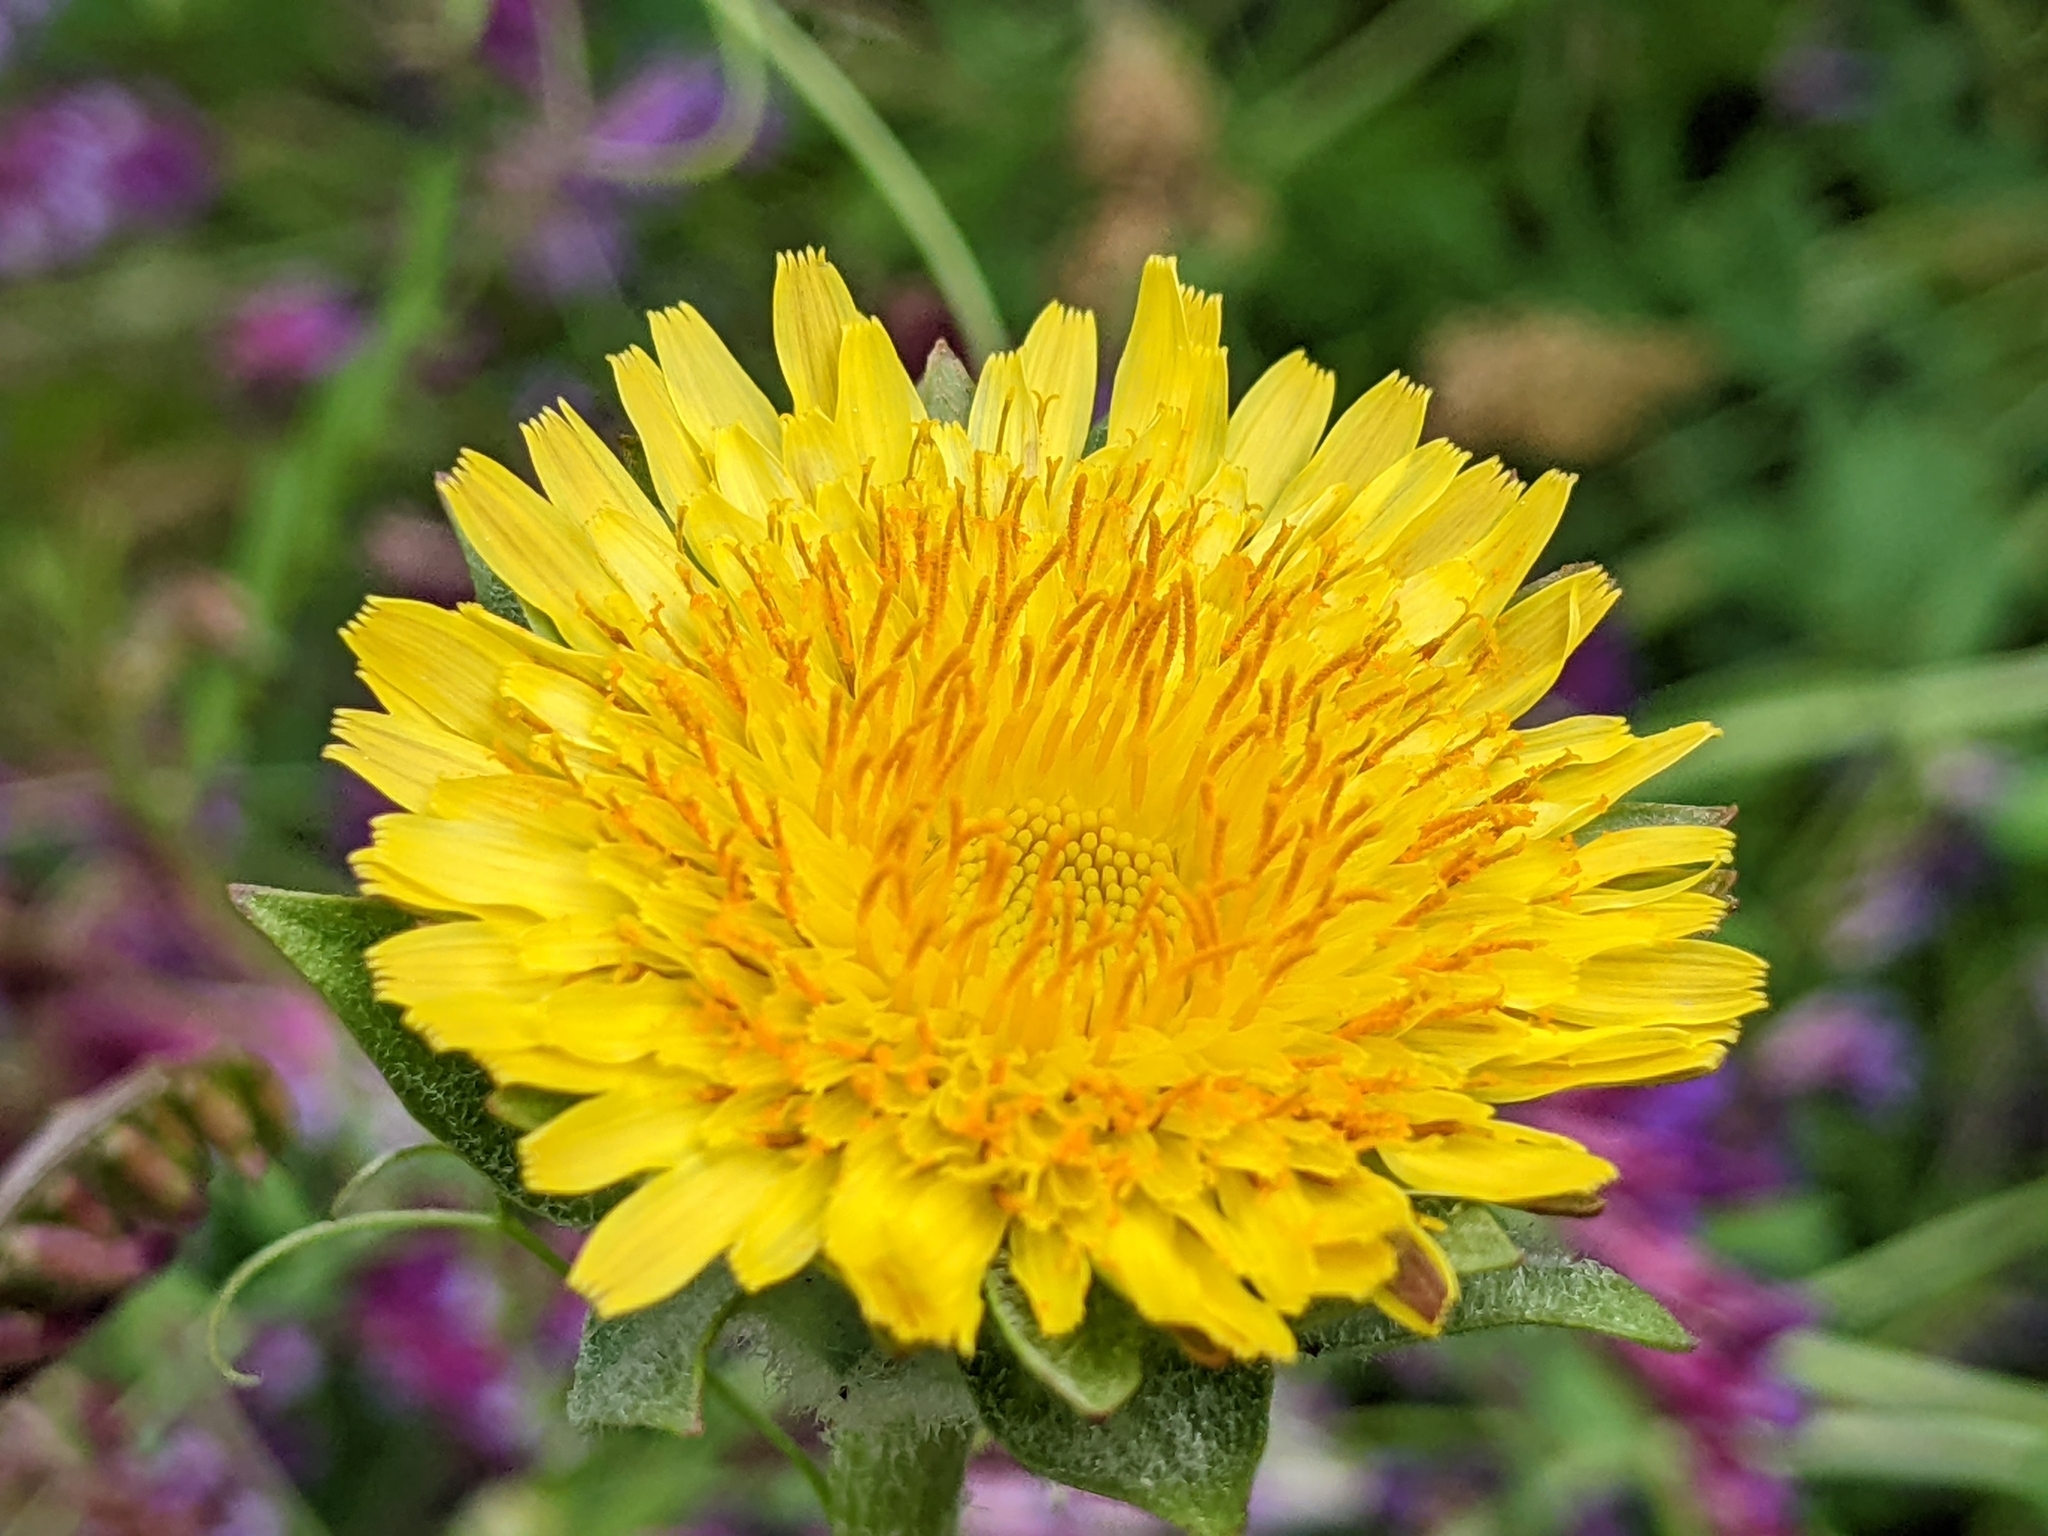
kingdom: Plantae
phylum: Tracheophyta
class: Magnoliopsida
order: Asterales
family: Asteraceae
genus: Agoseris
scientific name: Agoseris grandiflora
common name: Grassland agoseris
